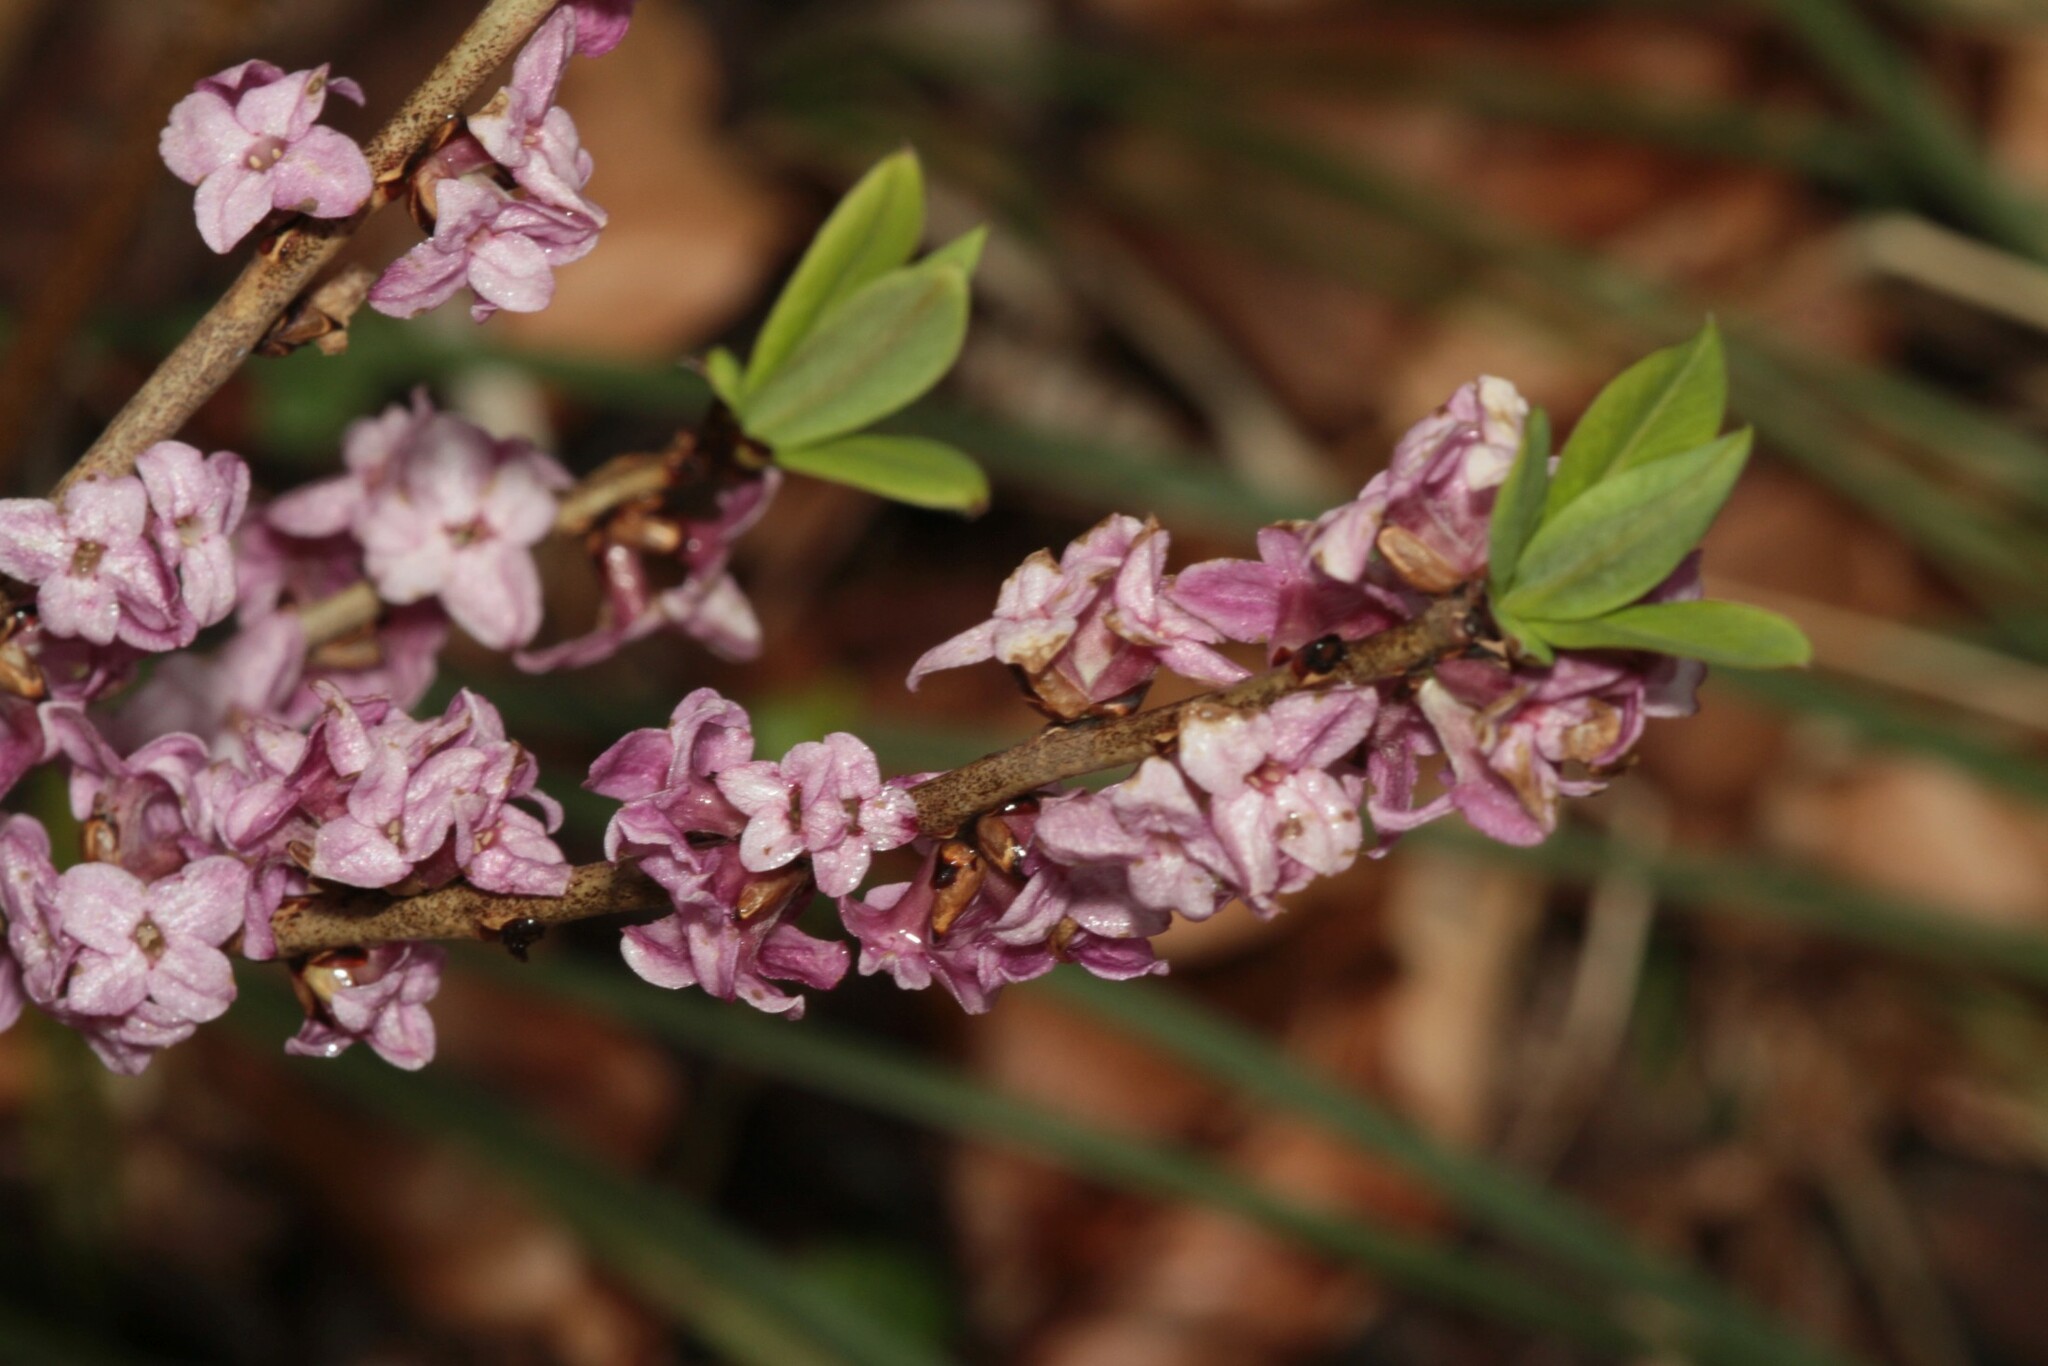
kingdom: Plantae
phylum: Tracheophyta
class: Magnoliopsida
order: Malvales
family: Thymelaeaceae
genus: Daphne
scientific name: Daphne mezereum
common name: Mezereon
